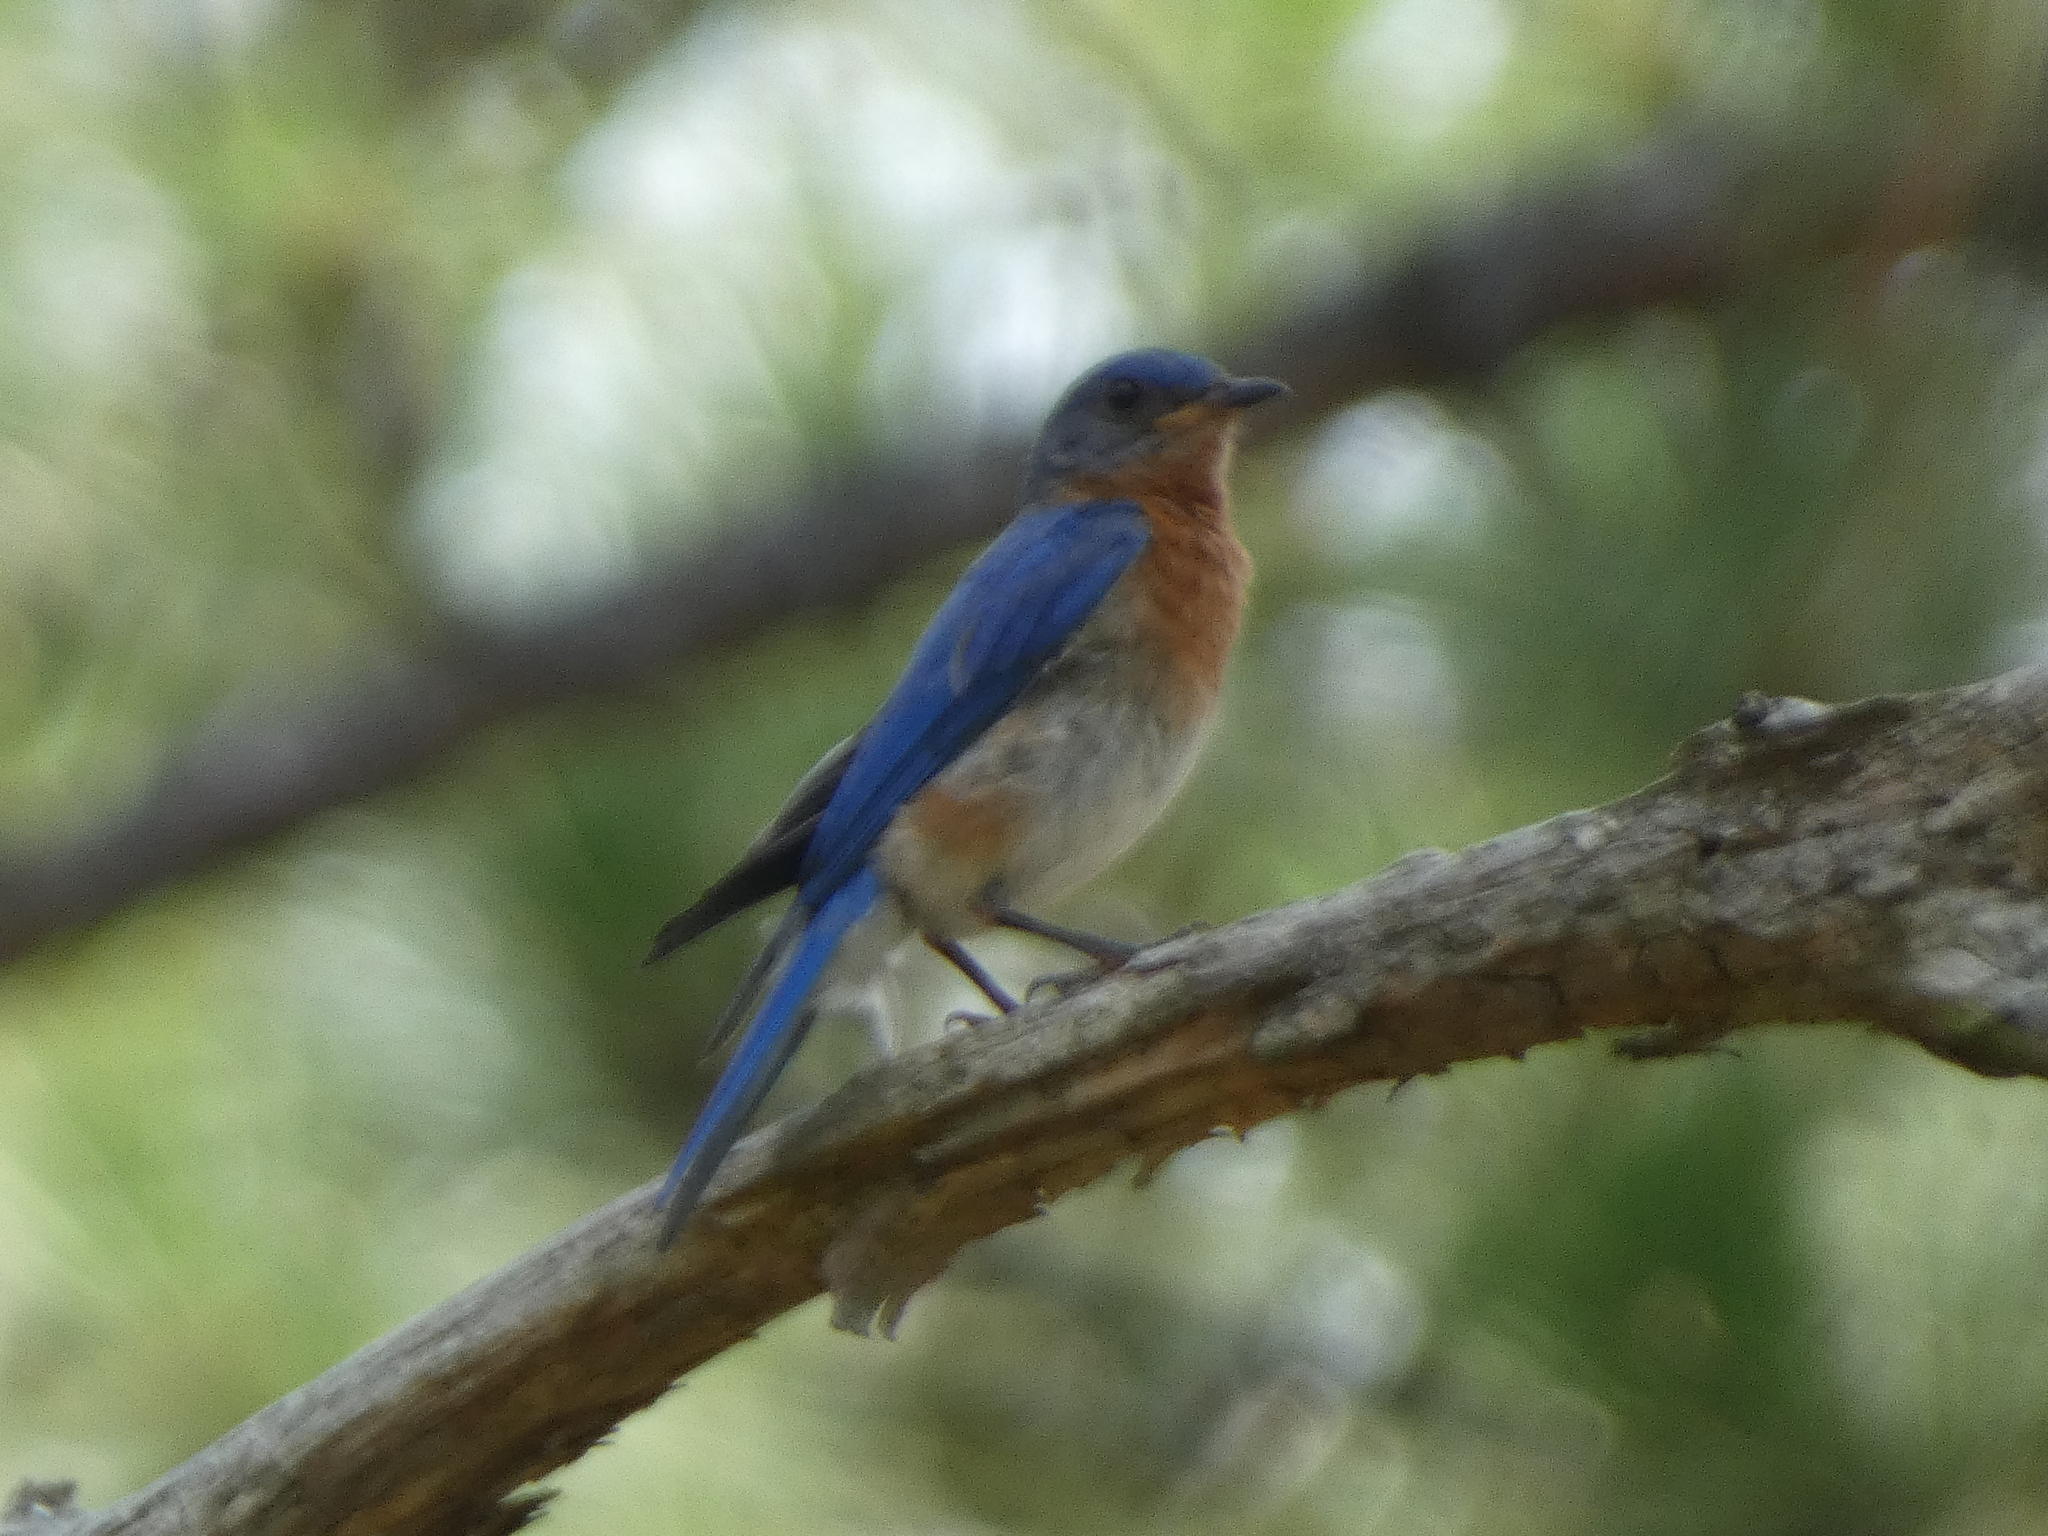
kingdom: Animalia
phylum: Chordata
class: Aves
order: Passeriformes
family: Turdidae
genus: Sialia
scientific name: Sialia sialis
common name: Eastern bluebird
